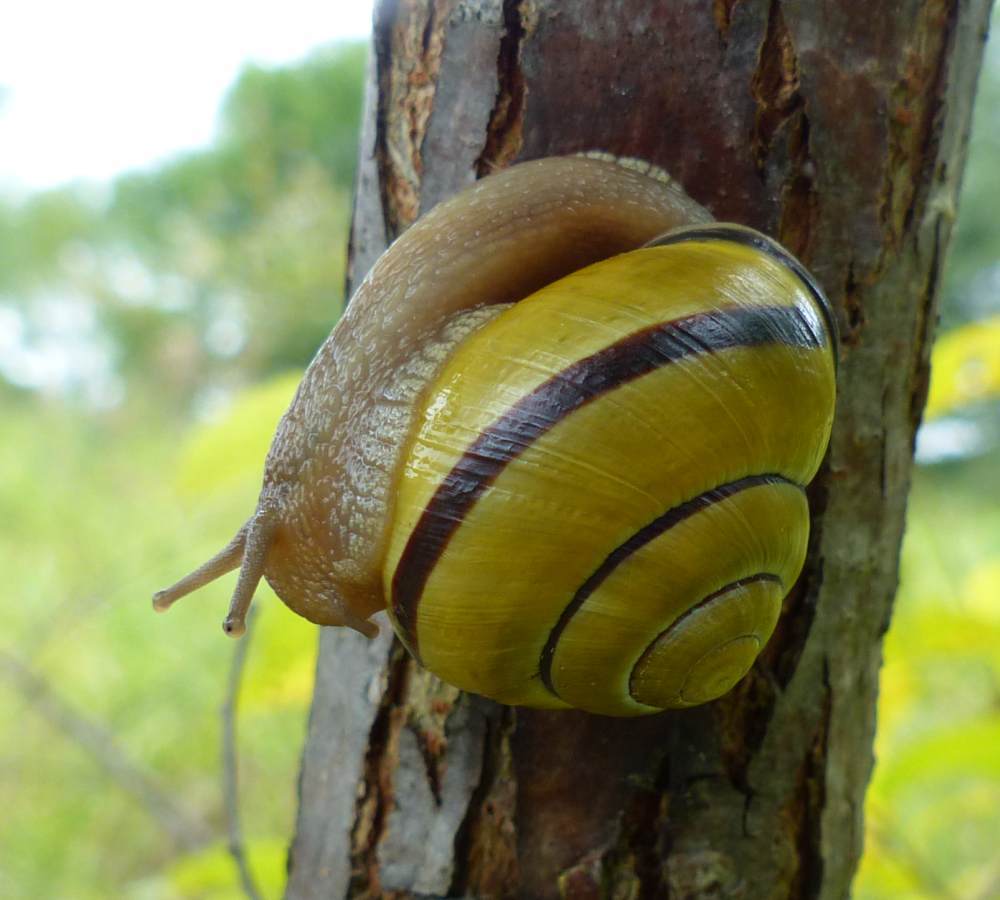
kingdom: Animalia
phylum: Mollusca
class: Gastropoda
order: Stylommatophora
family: Helicidae
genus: Cepaea
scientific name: Cepaea nemoralis
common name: Grovesnail
